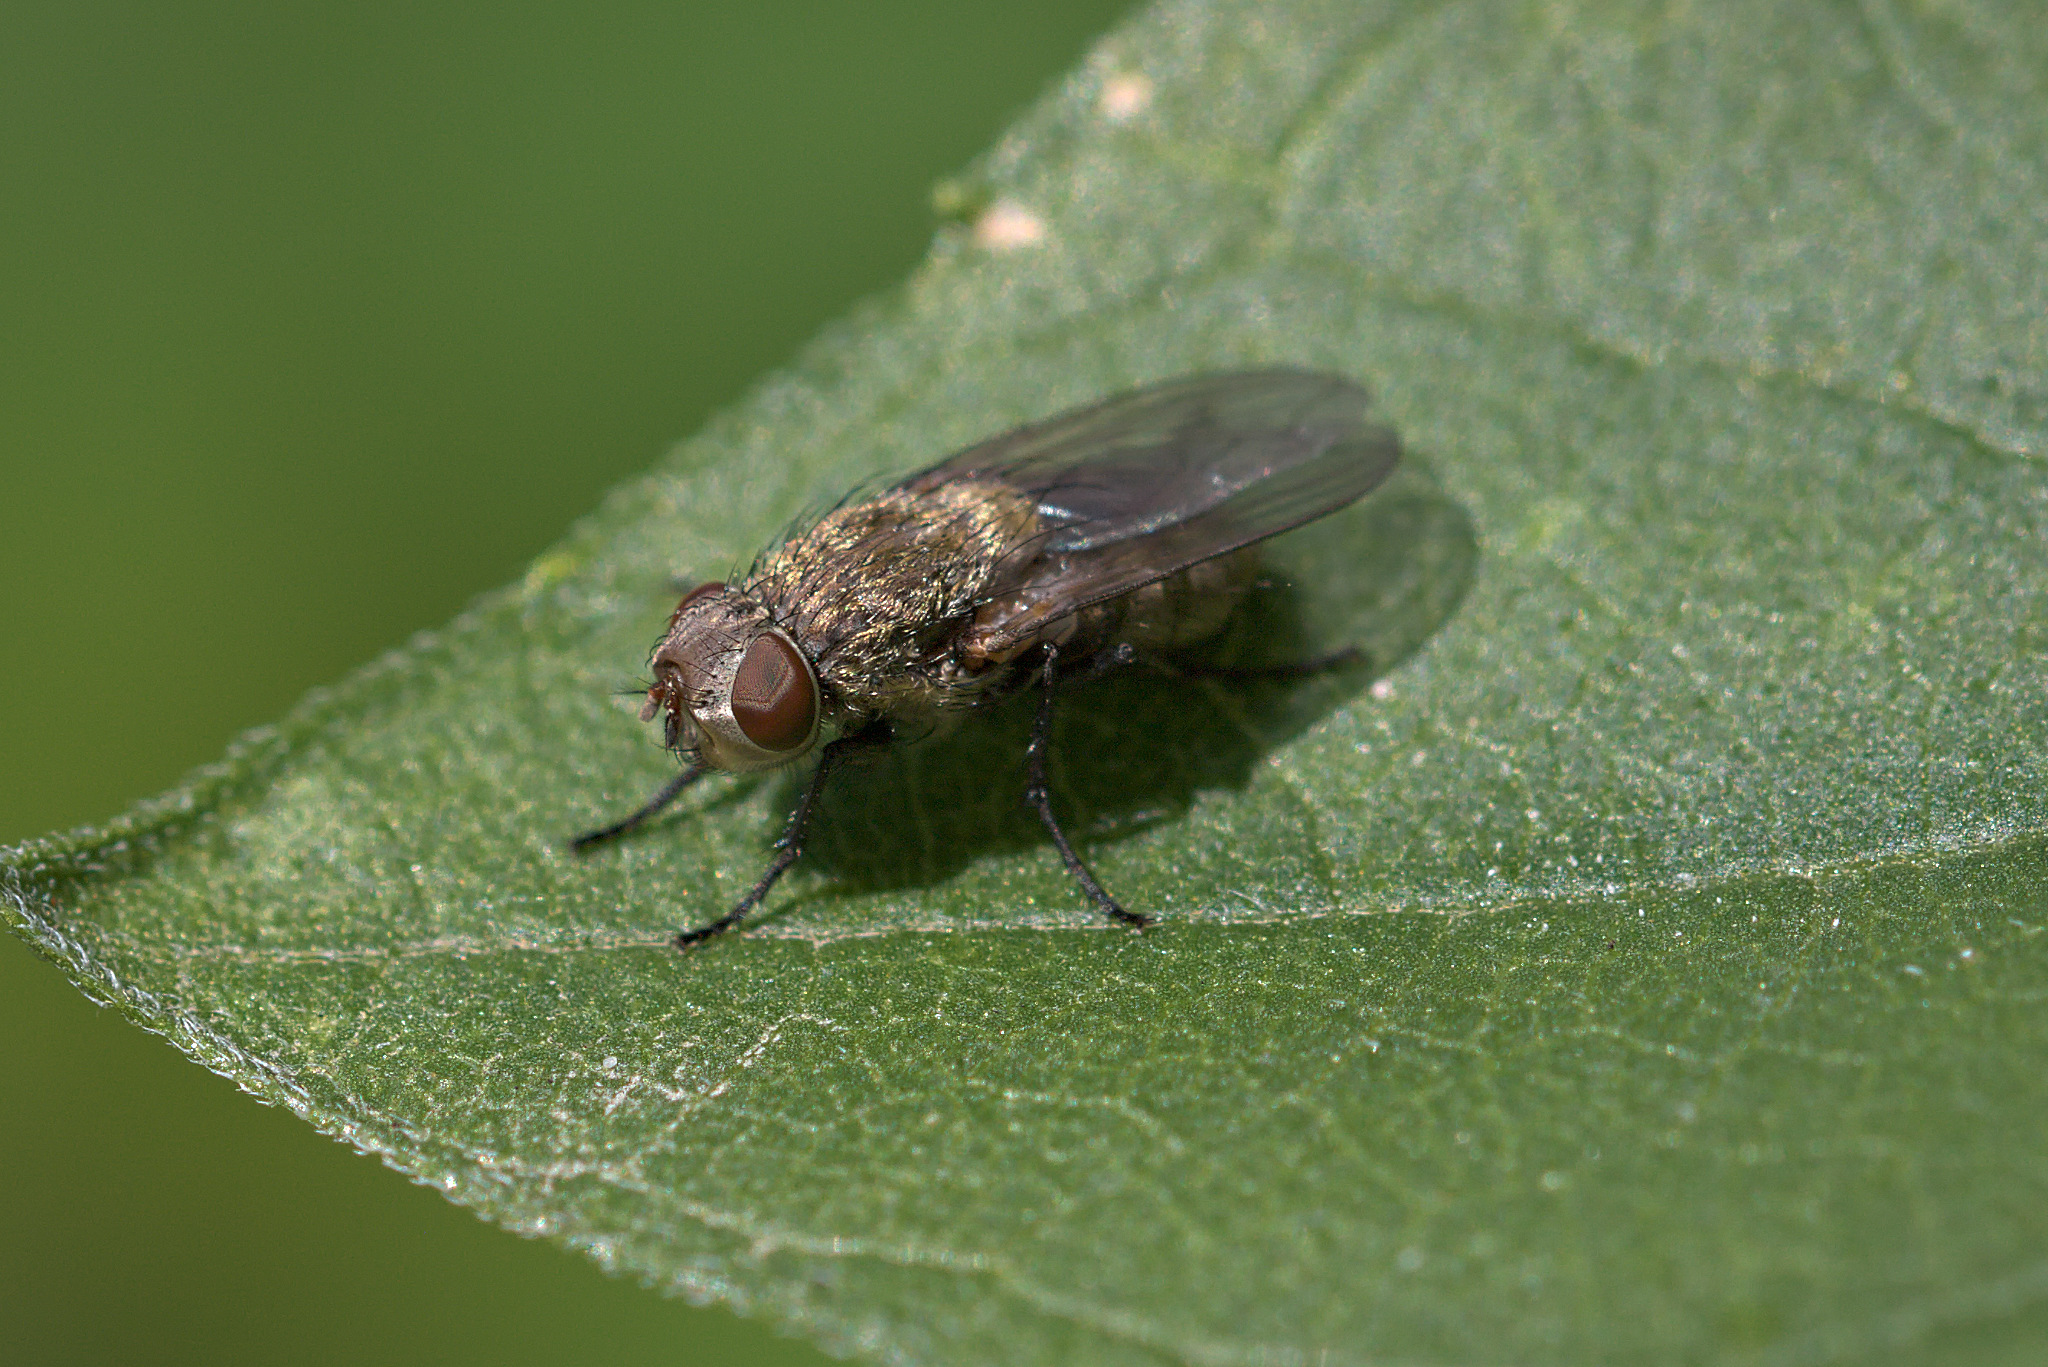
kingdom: Animalia
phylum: Arthropoda
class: Insecta
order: Diptera
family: Polleniidae
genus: Pollenia
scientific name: Pollenia
